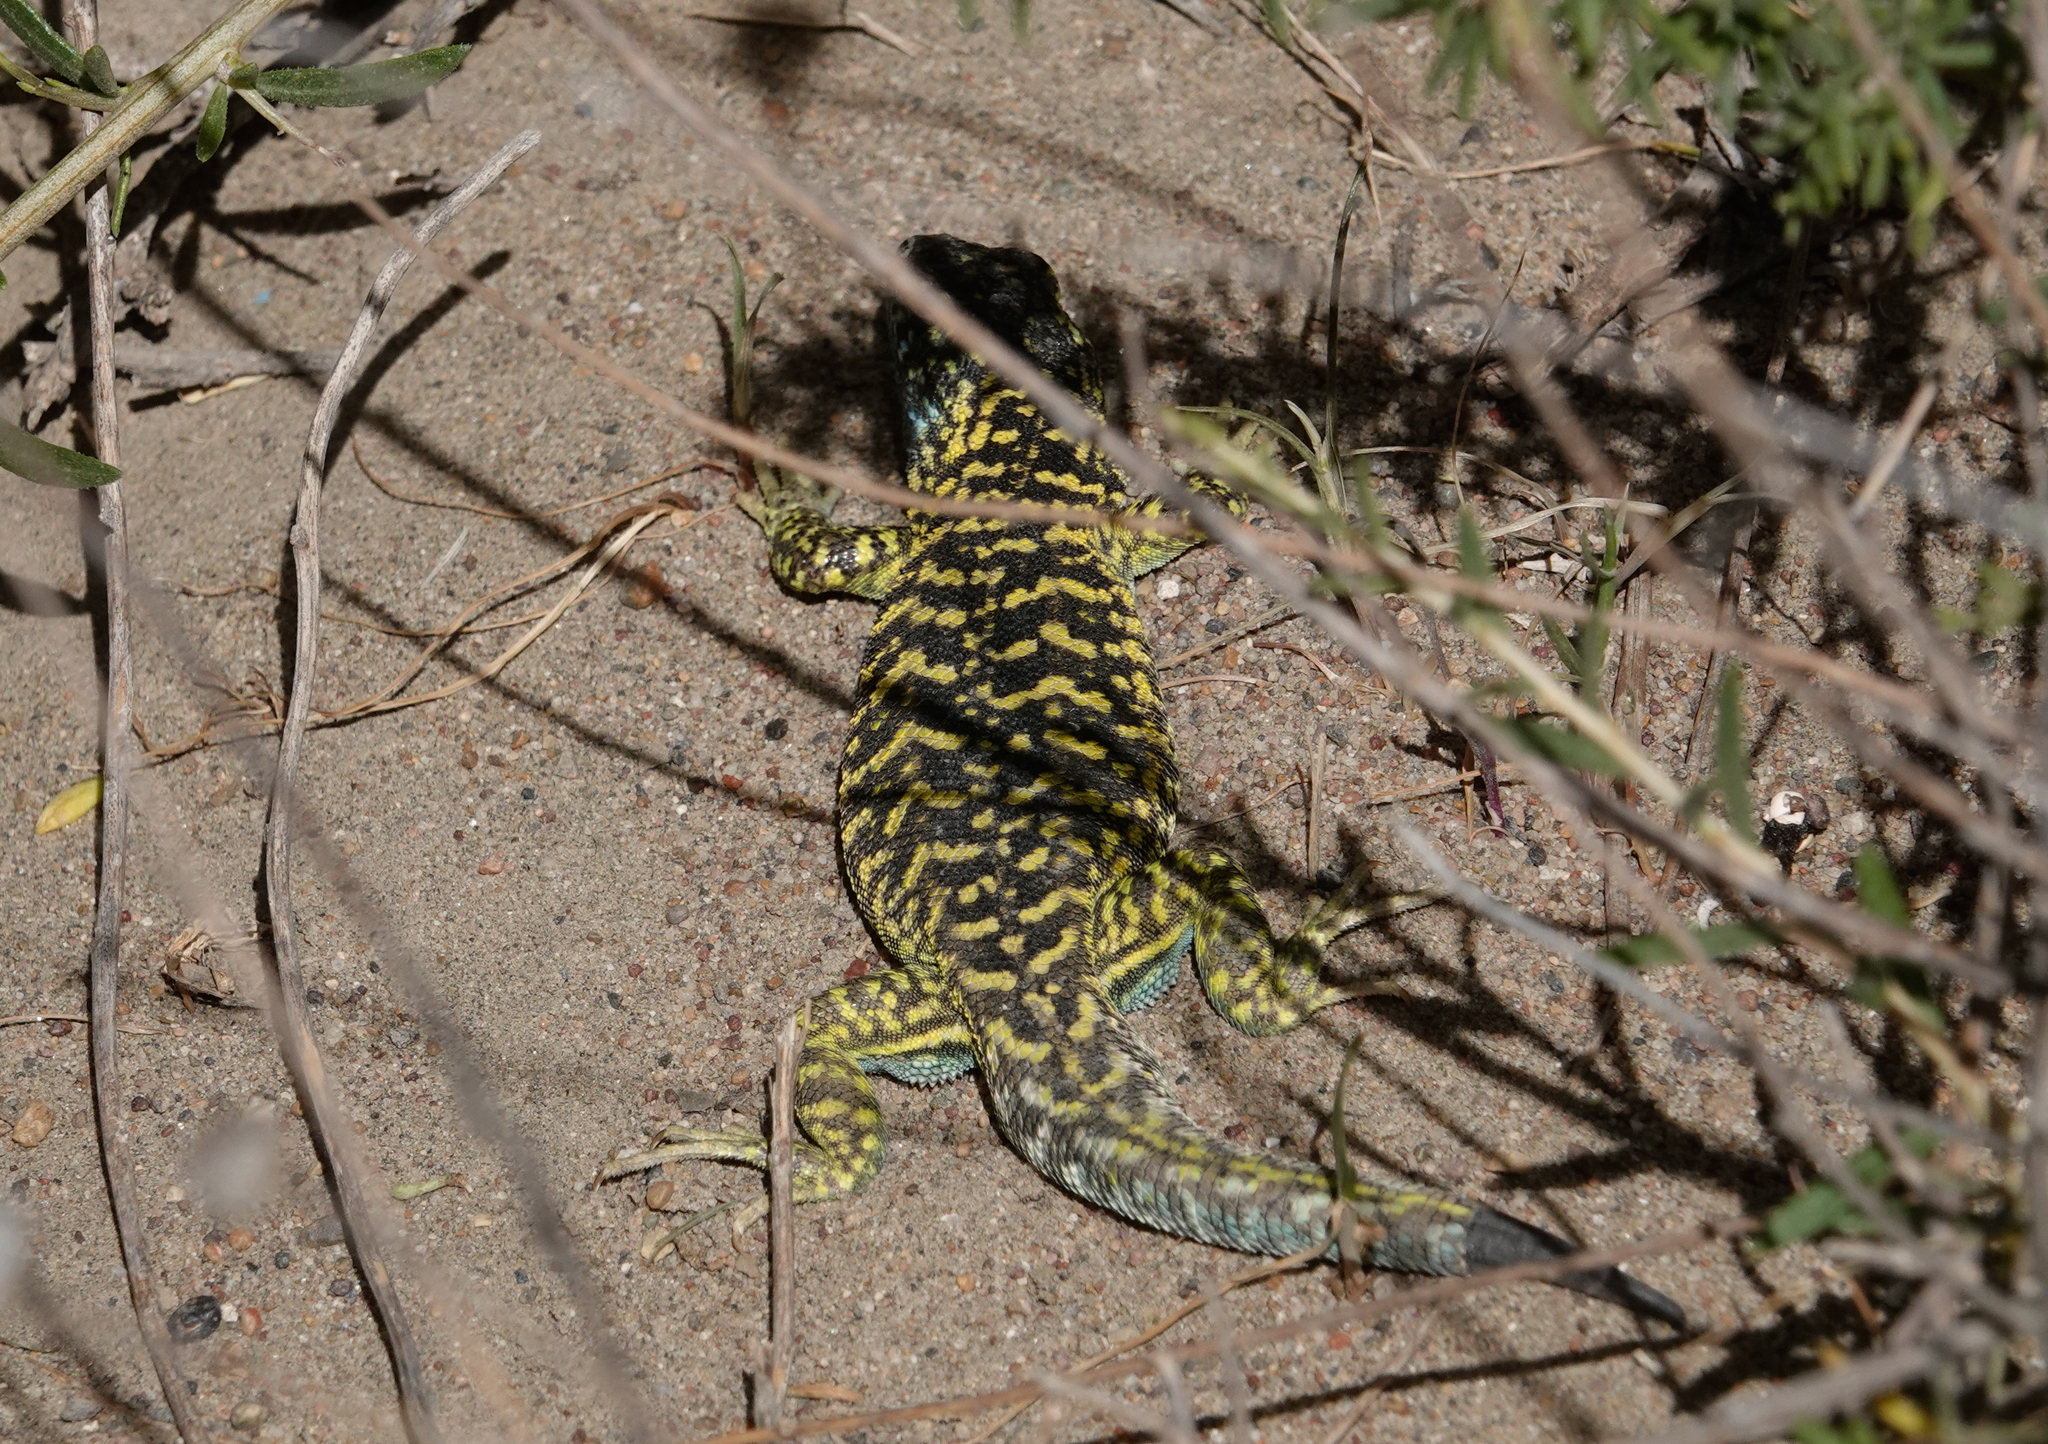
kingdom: Animalia
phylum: Chordata
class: Squamata
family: Liolaemidae
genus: Liolaemus
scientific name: Liolaemus melanops
